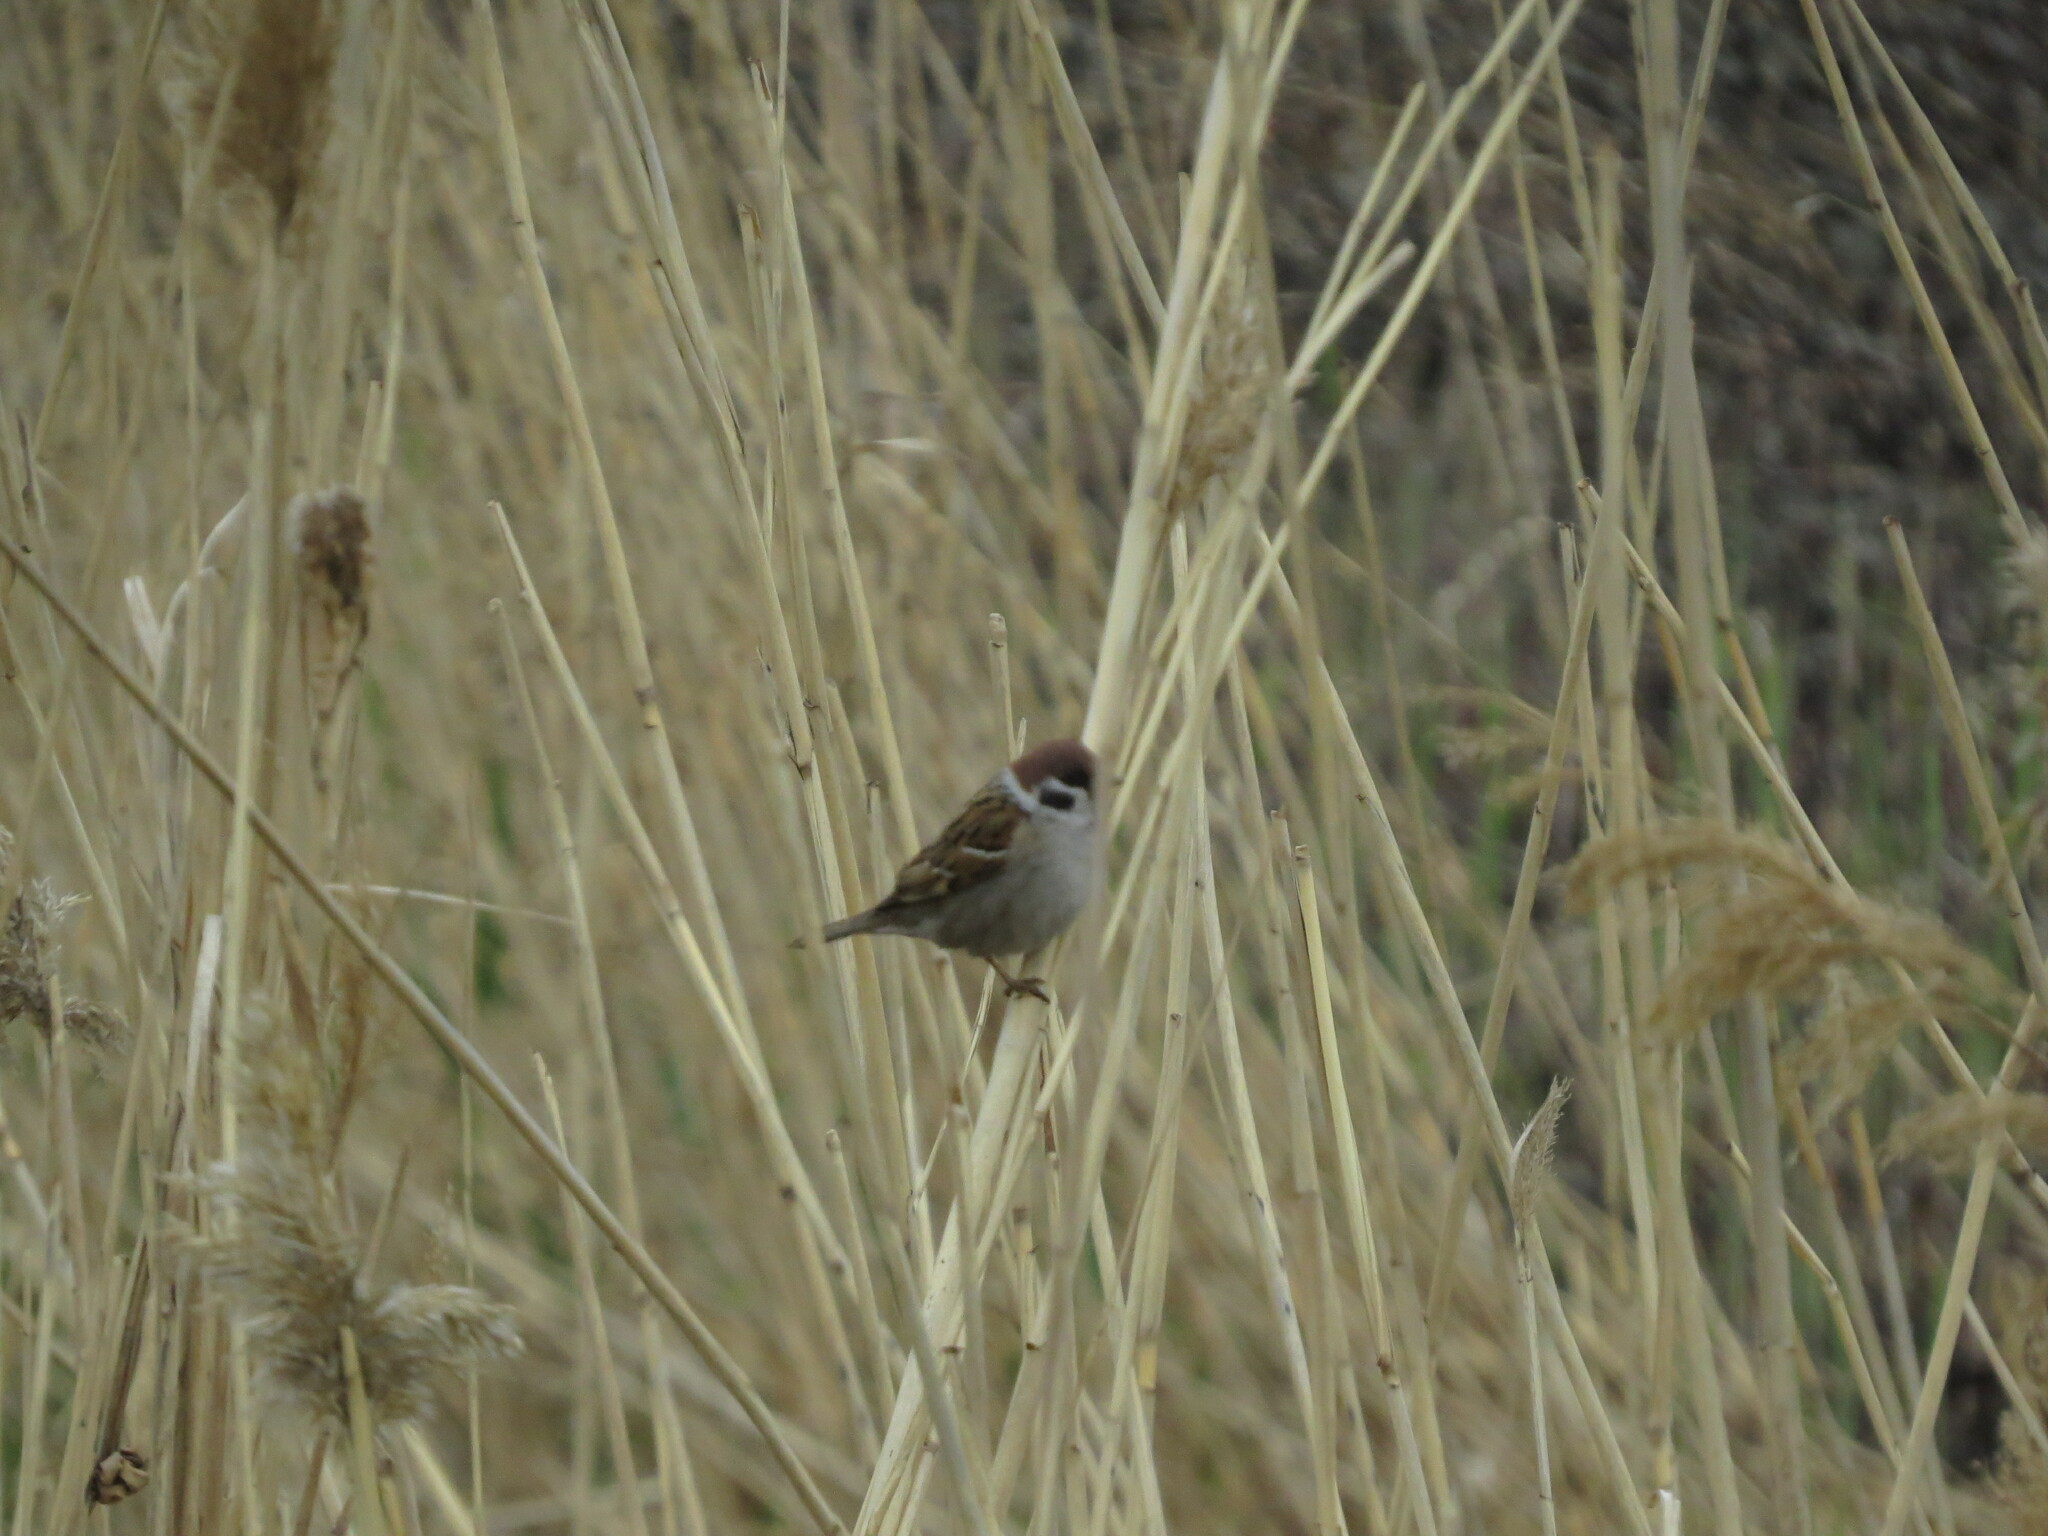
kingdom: Animalia
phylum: Chordata
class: Aves
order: Passeriformes
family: Passeridae
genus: Passer
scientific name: Passer montanus
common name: Eurasian tree sparrow
